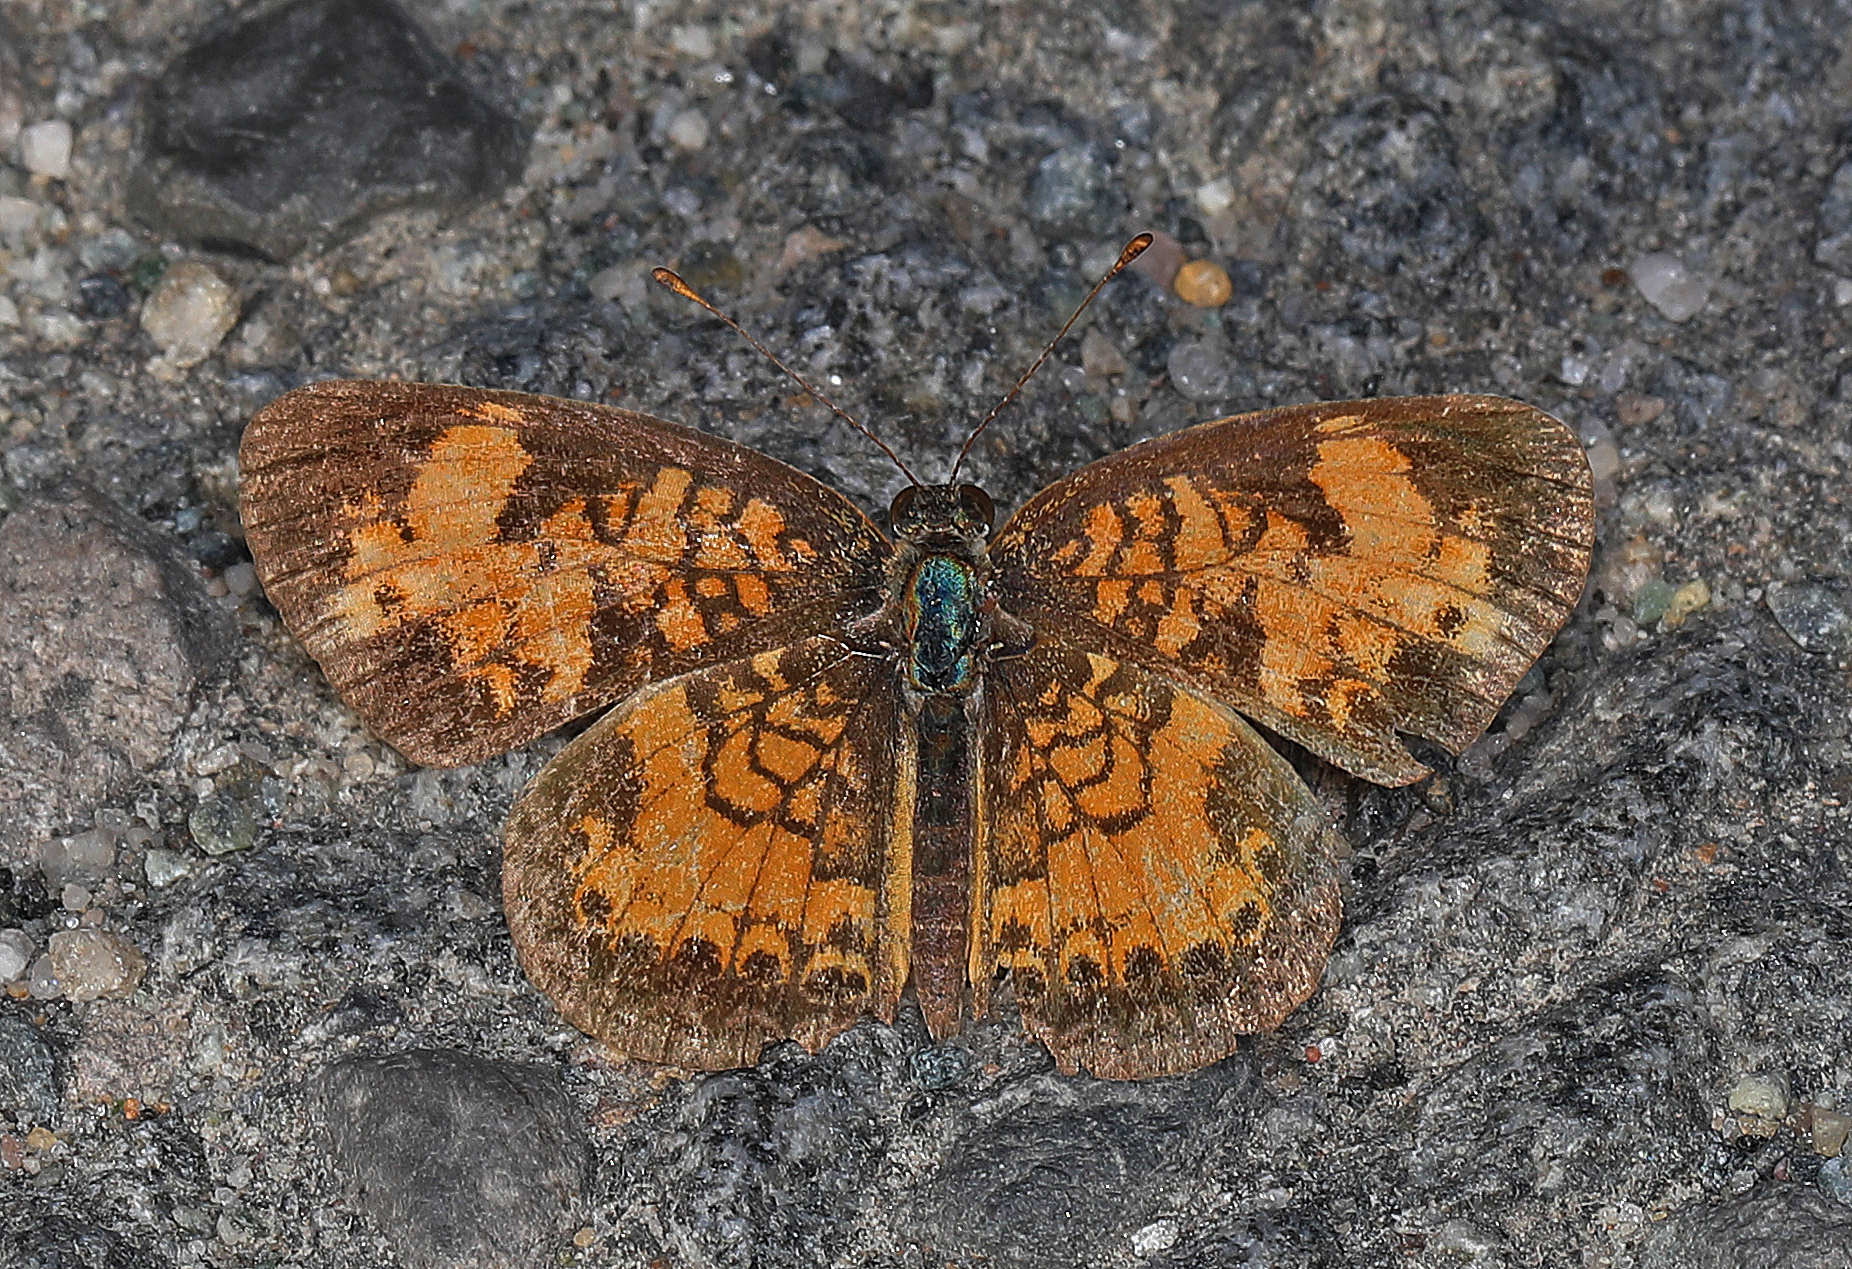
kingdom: Animalia
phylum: Arthropoda
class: Insecta
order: Lepidoptera
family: Nymphalidae
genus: Phyciodes
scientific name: Phyciodes tharos
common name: Pearl crescent
